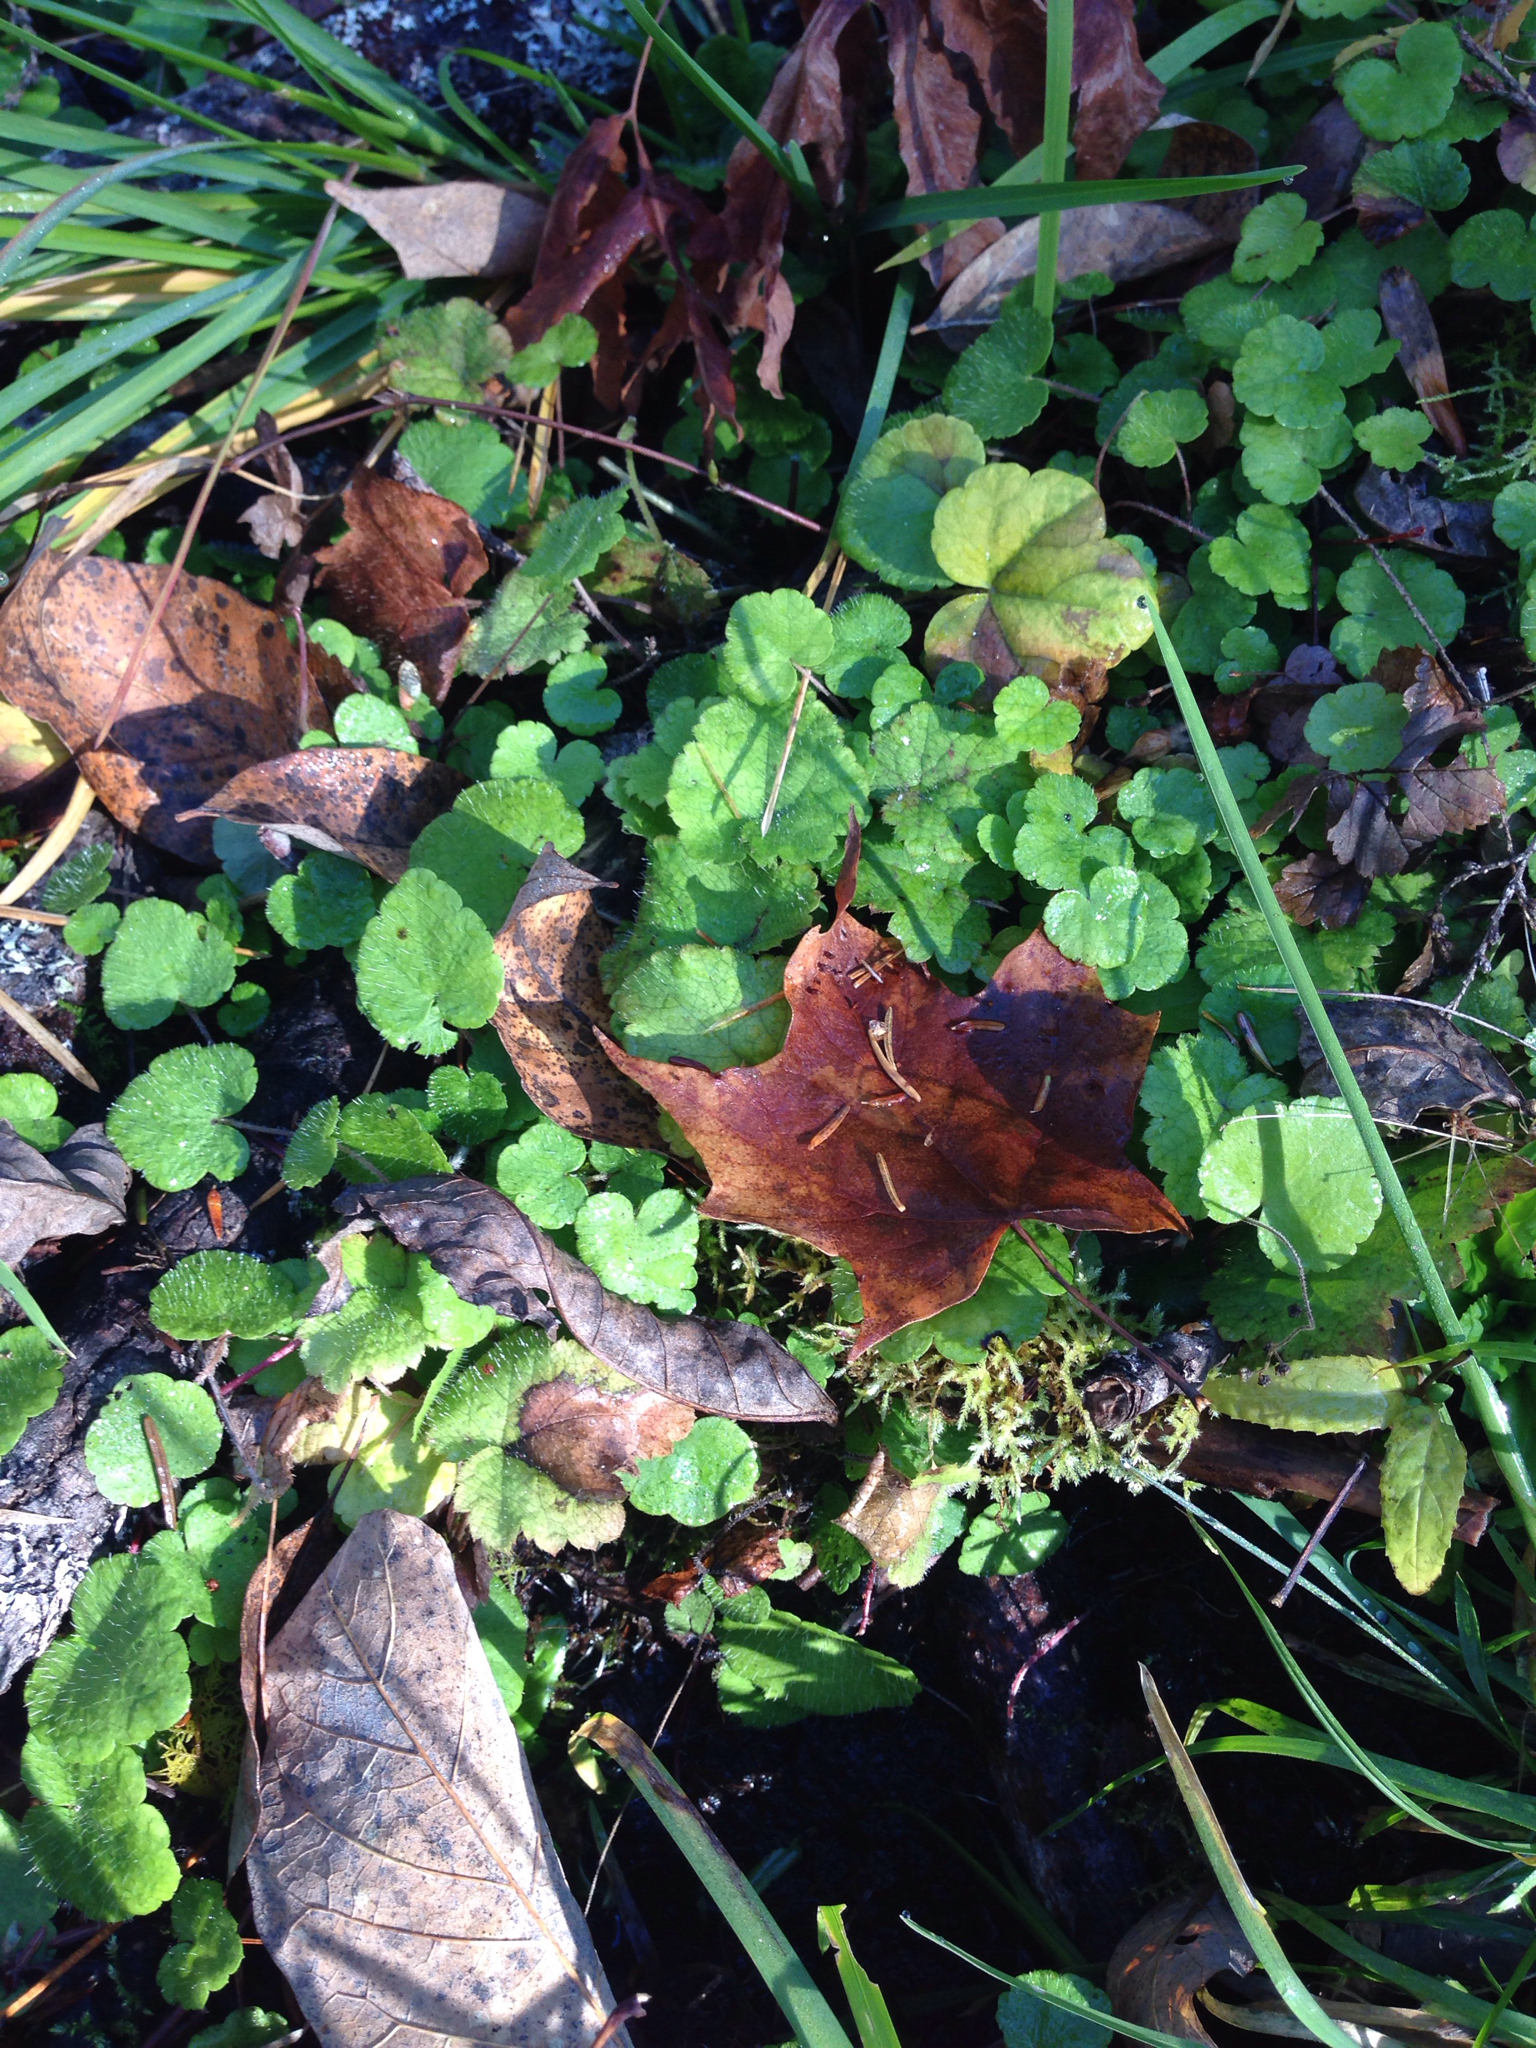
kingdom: Plantae
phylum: Tracheophyta
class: Magnoliopsida
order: Saxifragales
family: Saxifragaceae
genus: Mitella
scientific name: Mitella nuda
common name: Bare-stemmed bishop's-cap
